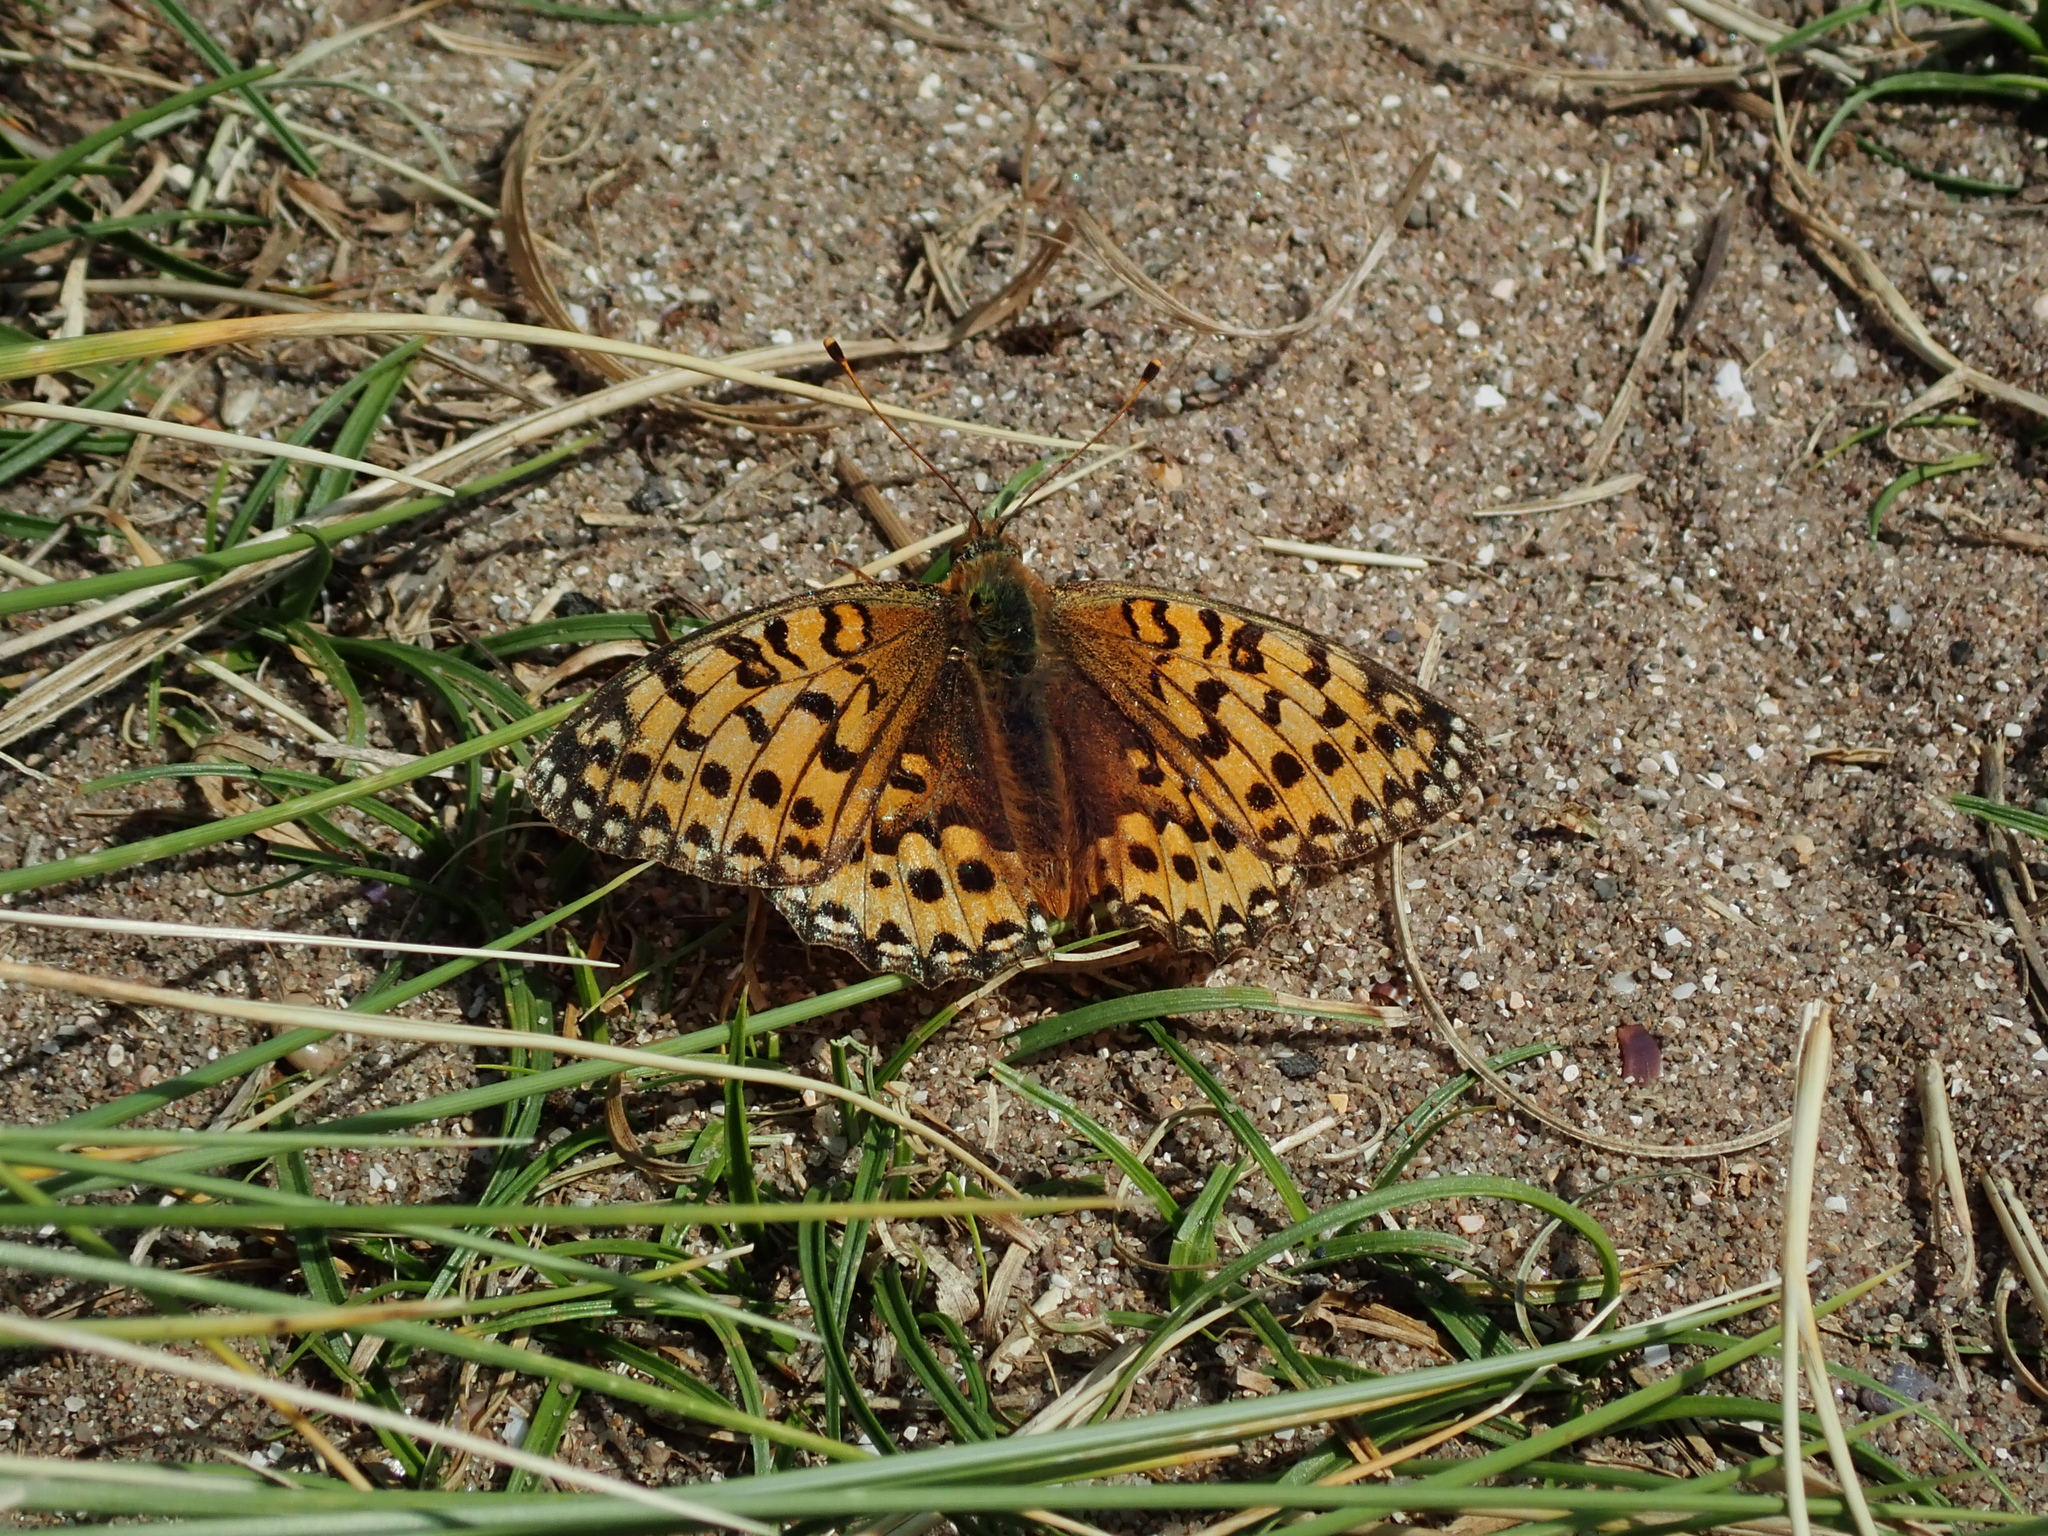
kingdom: Animalia
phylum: Arthropoda
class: Insecta
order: Lepidoptera
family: Nymphalidae
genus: Speyeria
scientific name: Speyeria aglaja
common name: Dark green fritillary
